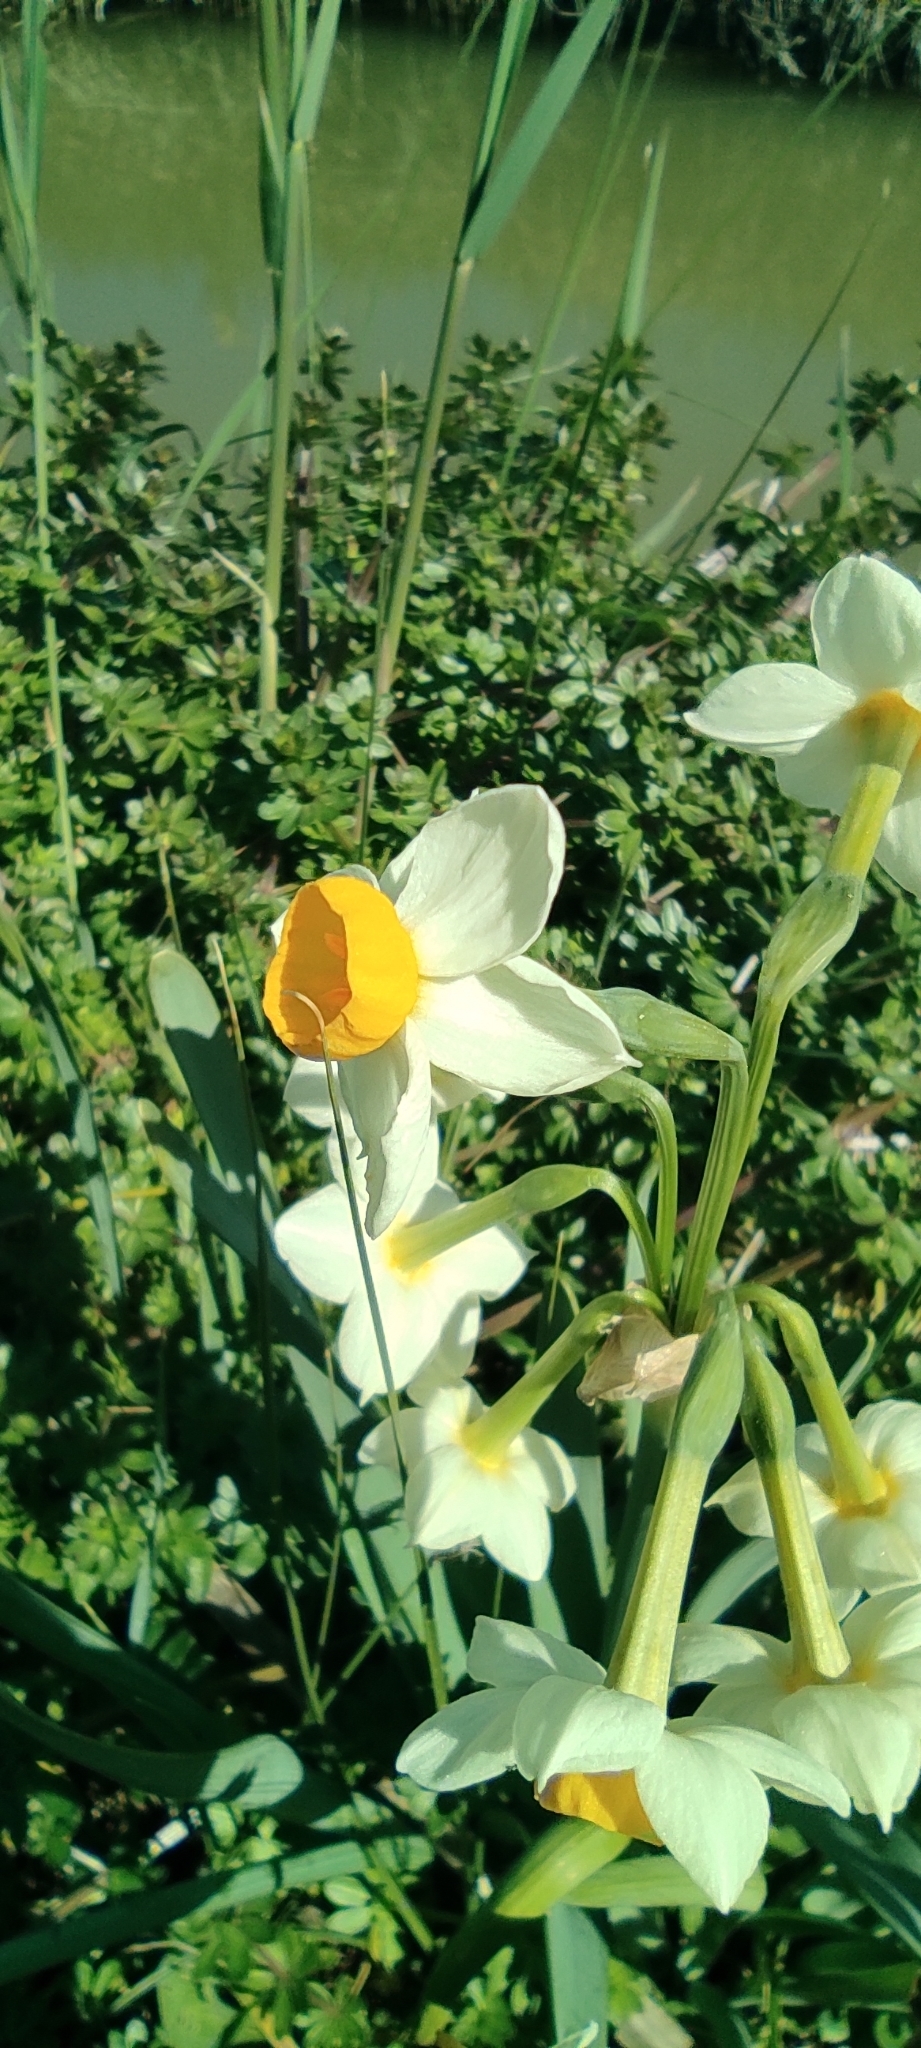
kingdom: Plantae
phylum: Tracheophyta
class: Liliopsida
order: Asparagales
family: Amaryllidaceae
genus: Narcissus
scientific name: Narcissus tazetta
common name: Bunch-flowered daffodil
